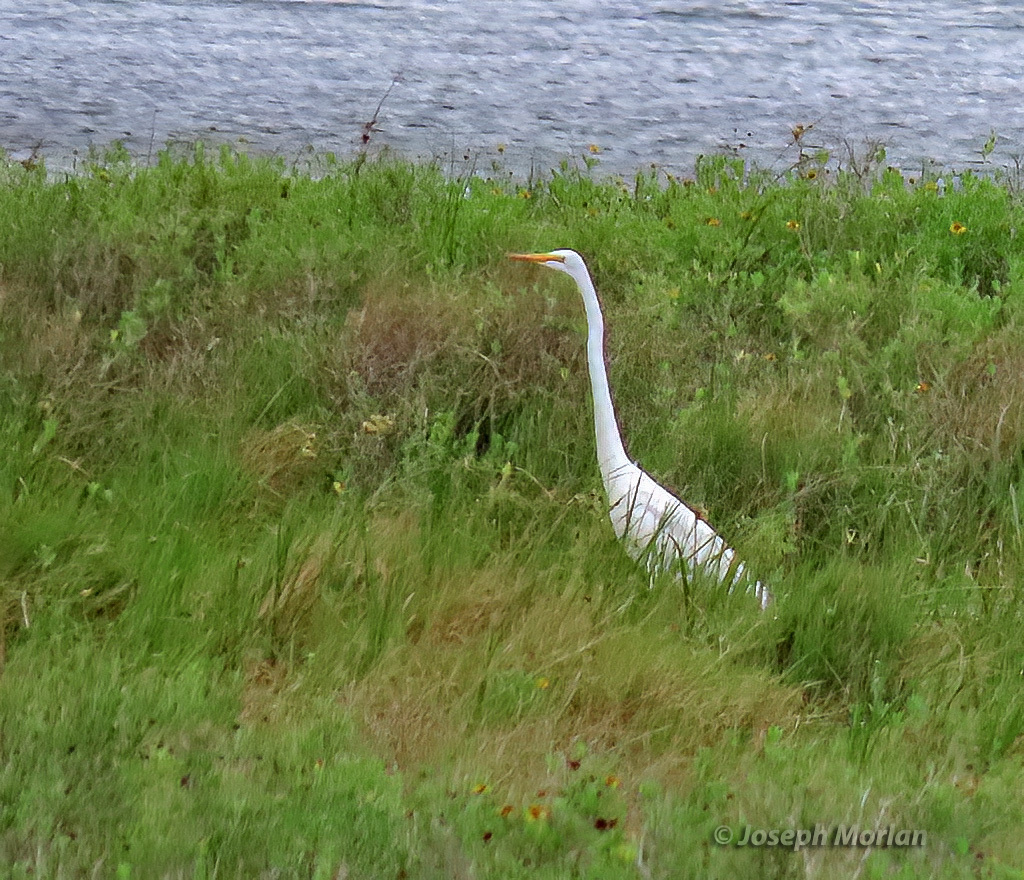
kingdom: Animalia
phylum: Chordata
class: Aves
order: Pelecaniformes
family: Ardeidae
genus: Ardea
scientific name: Ardea alba
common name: Great egret
